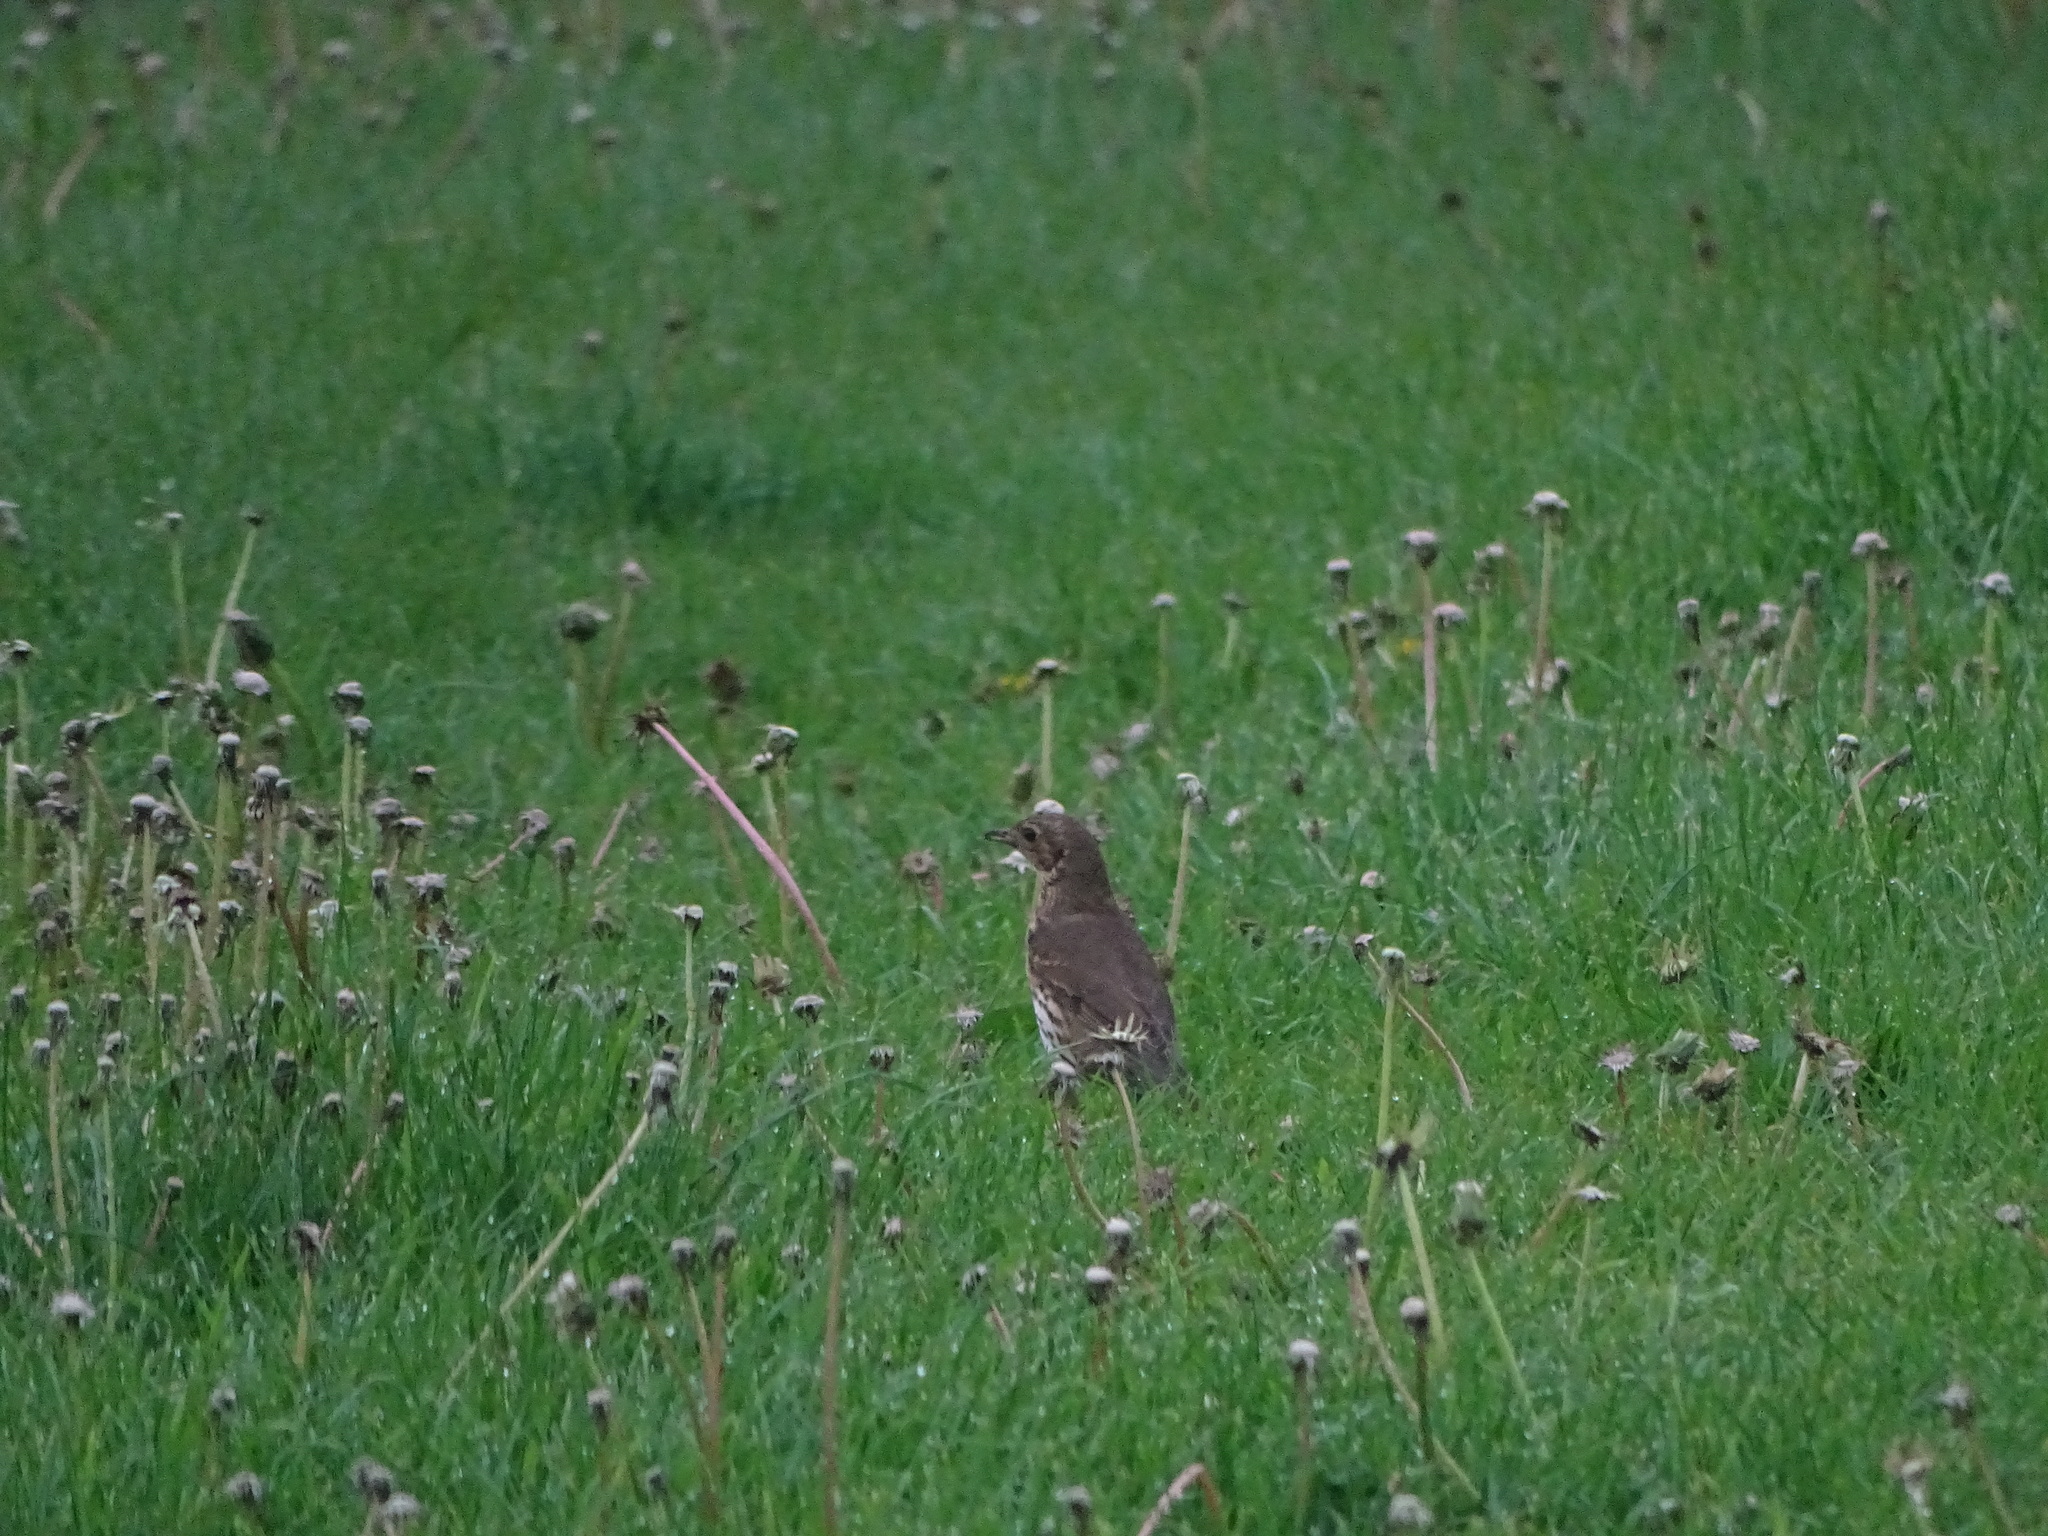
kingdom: Animalia
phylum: Chordata
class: Aves
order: Passeriformes
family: Turdidae
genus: Turdus
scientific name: Turdus philomelos
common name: Song thrush
